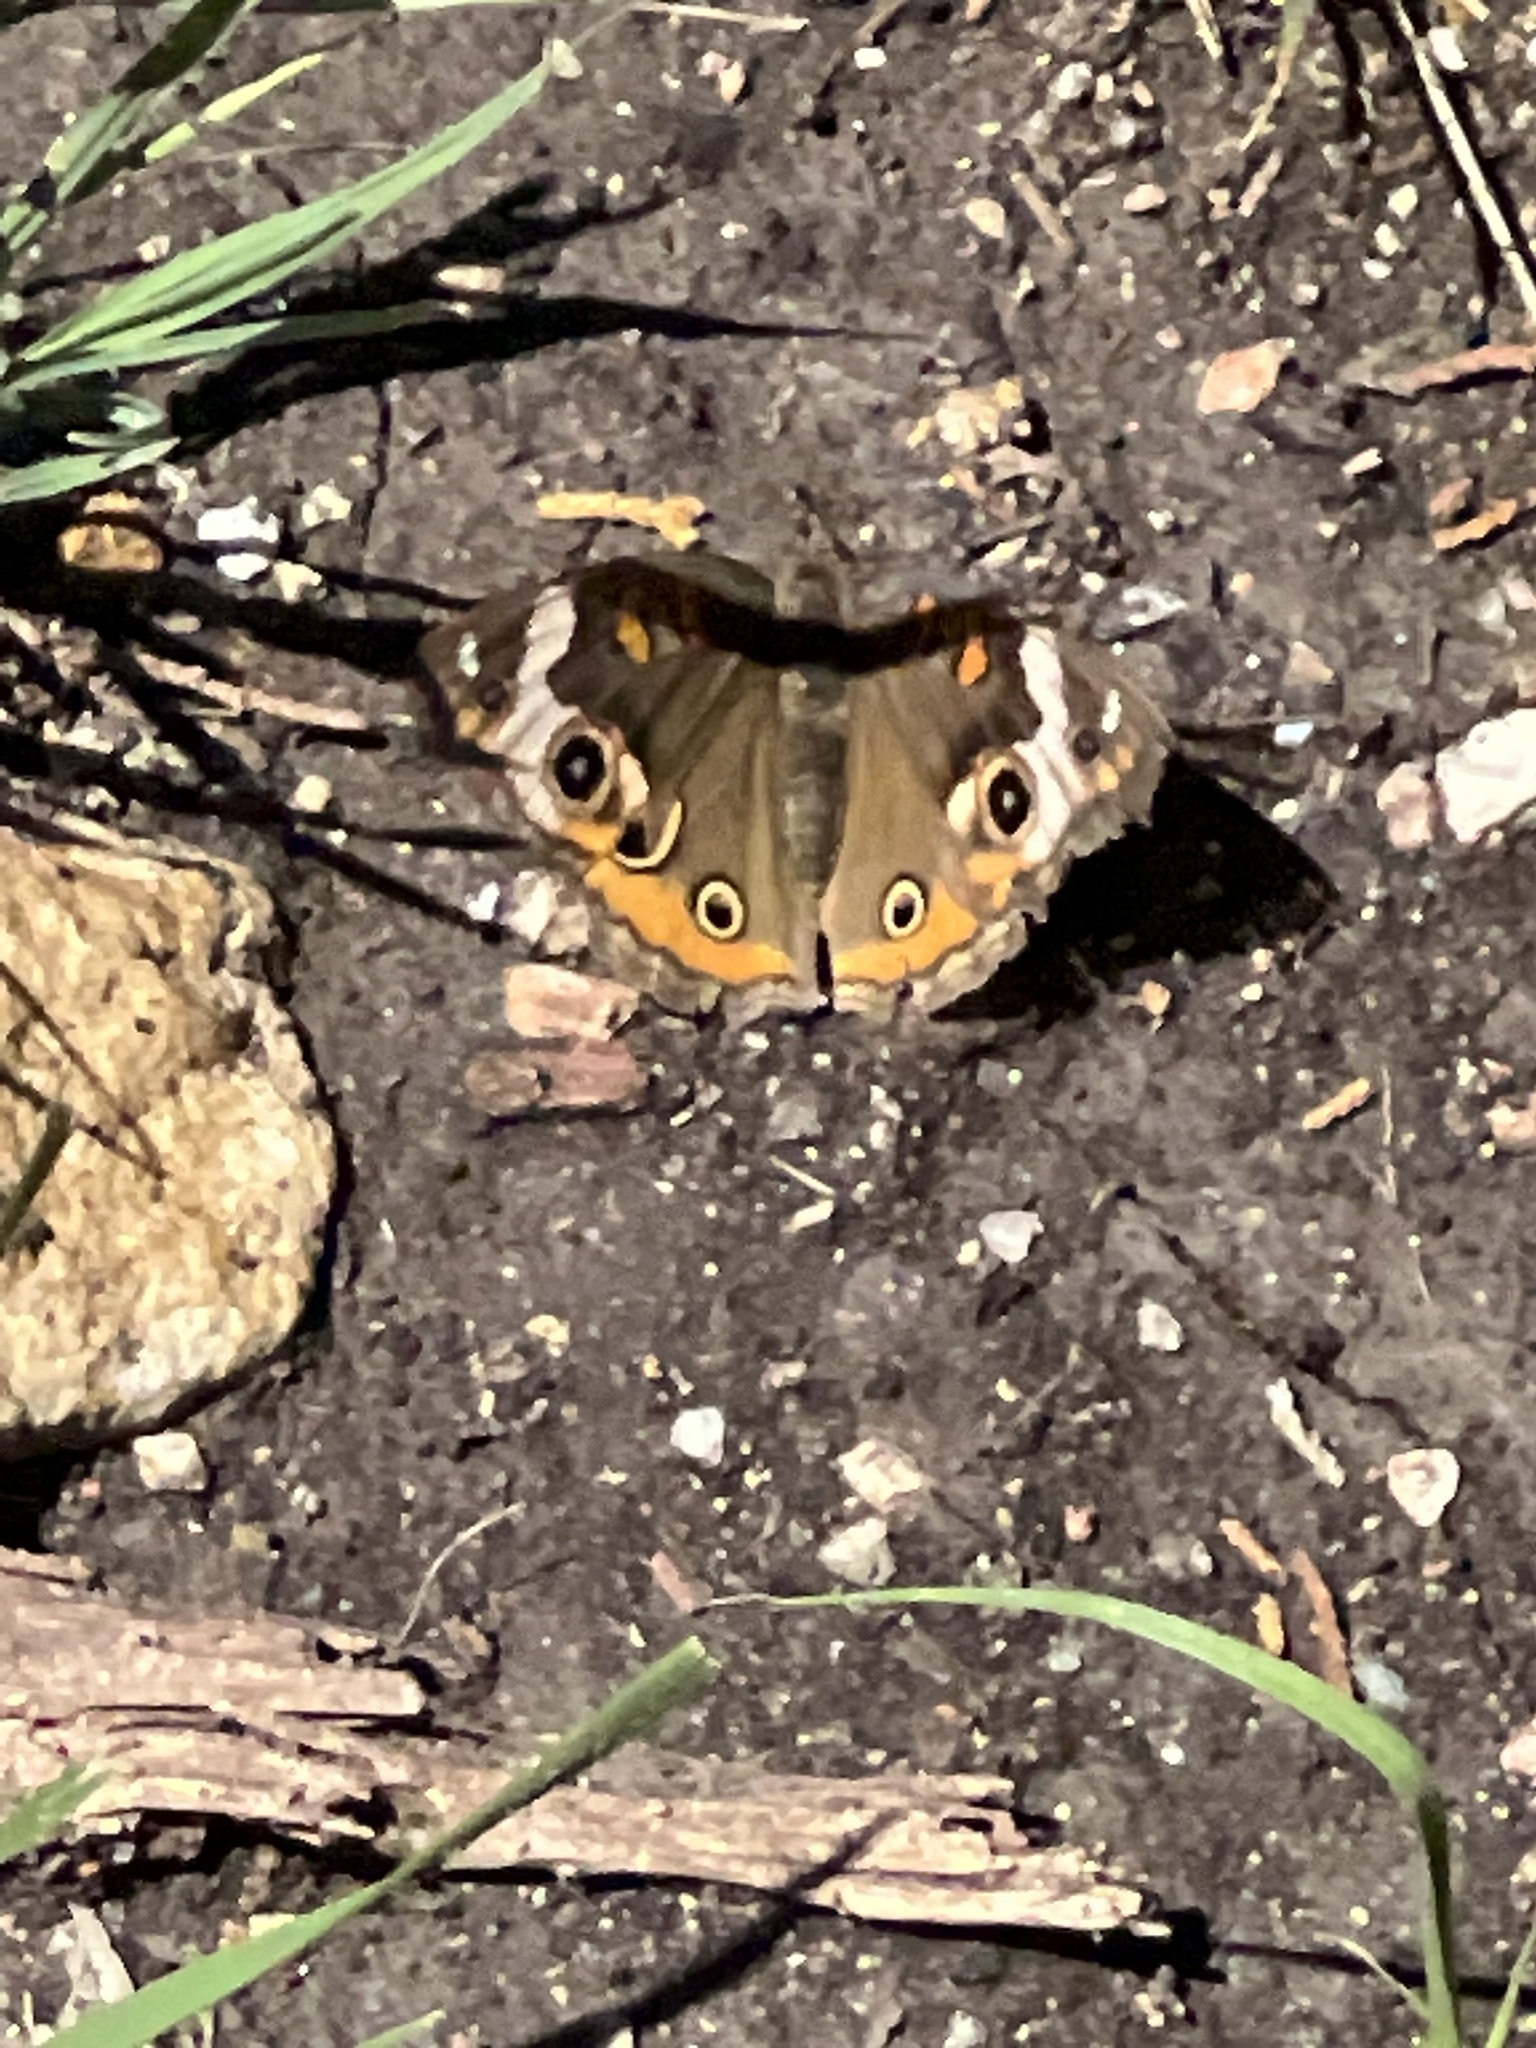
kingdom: Animalia
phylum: Arthropoda
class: Insecta
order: Lepidoptera
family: Nymphalidae
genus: Junonia
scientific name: Junonia coenia
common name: Common buckeye
